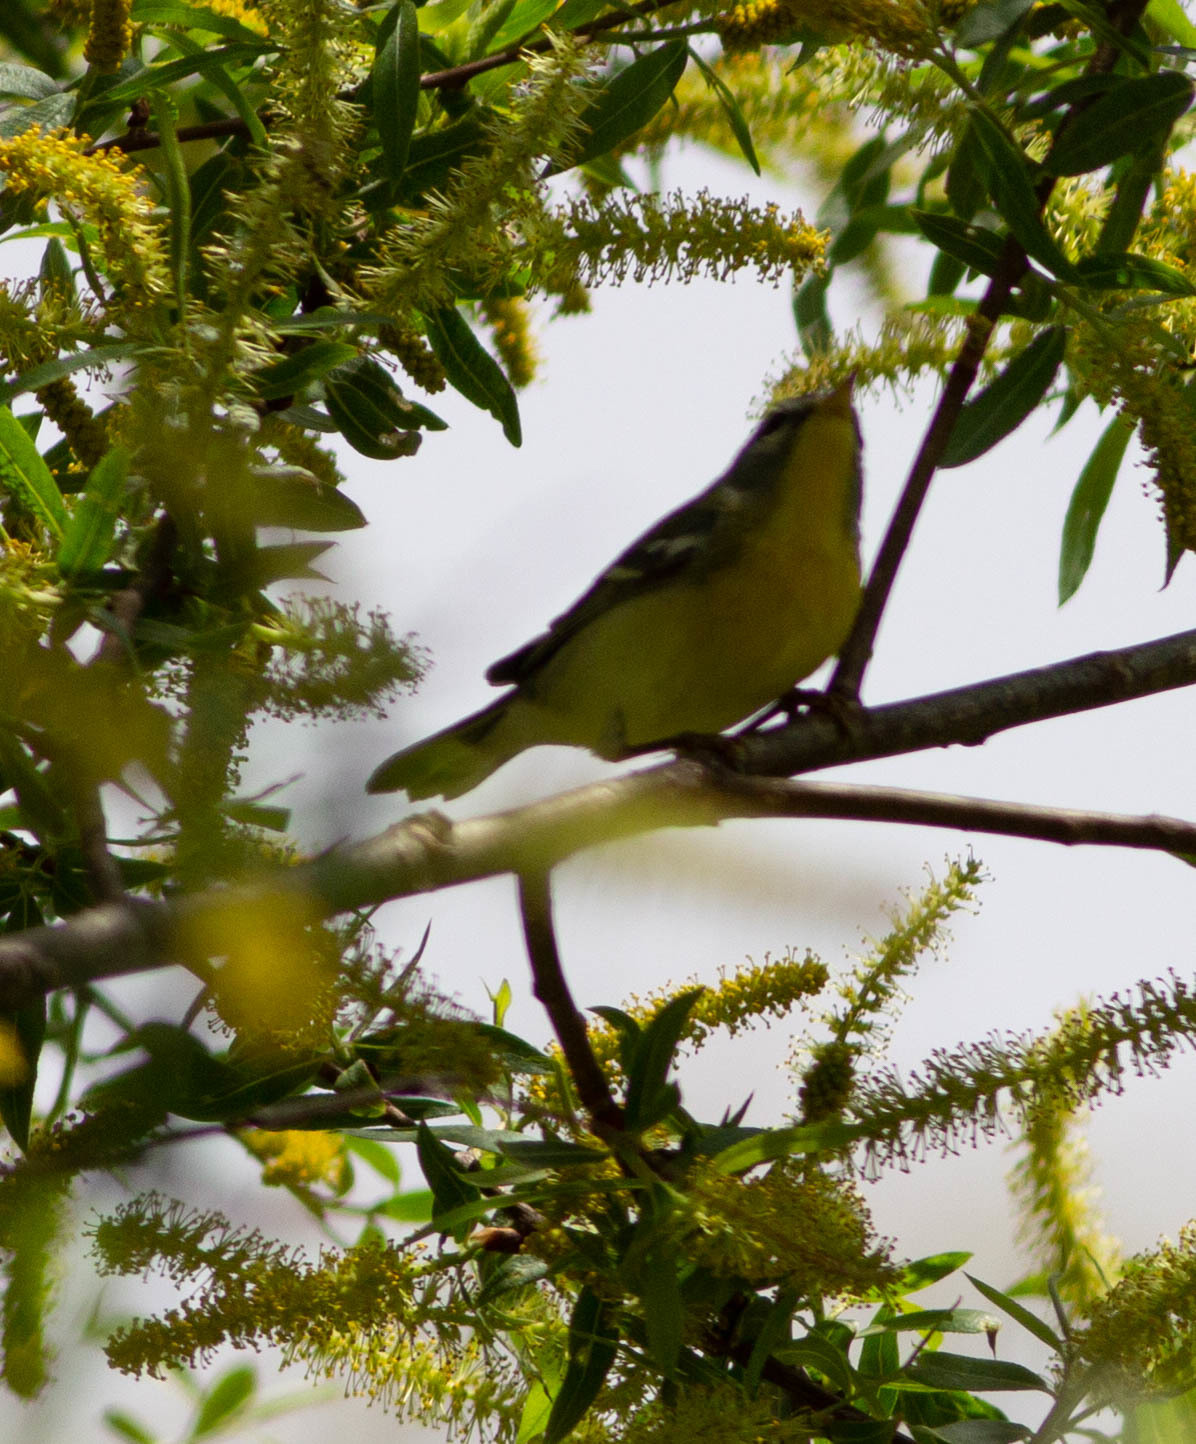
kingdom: Animalia
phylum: Chordata
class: Aves
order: Passeriformes
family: Parulidae
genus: Setophaga
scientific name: Setophaga americana
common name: Northern parula
